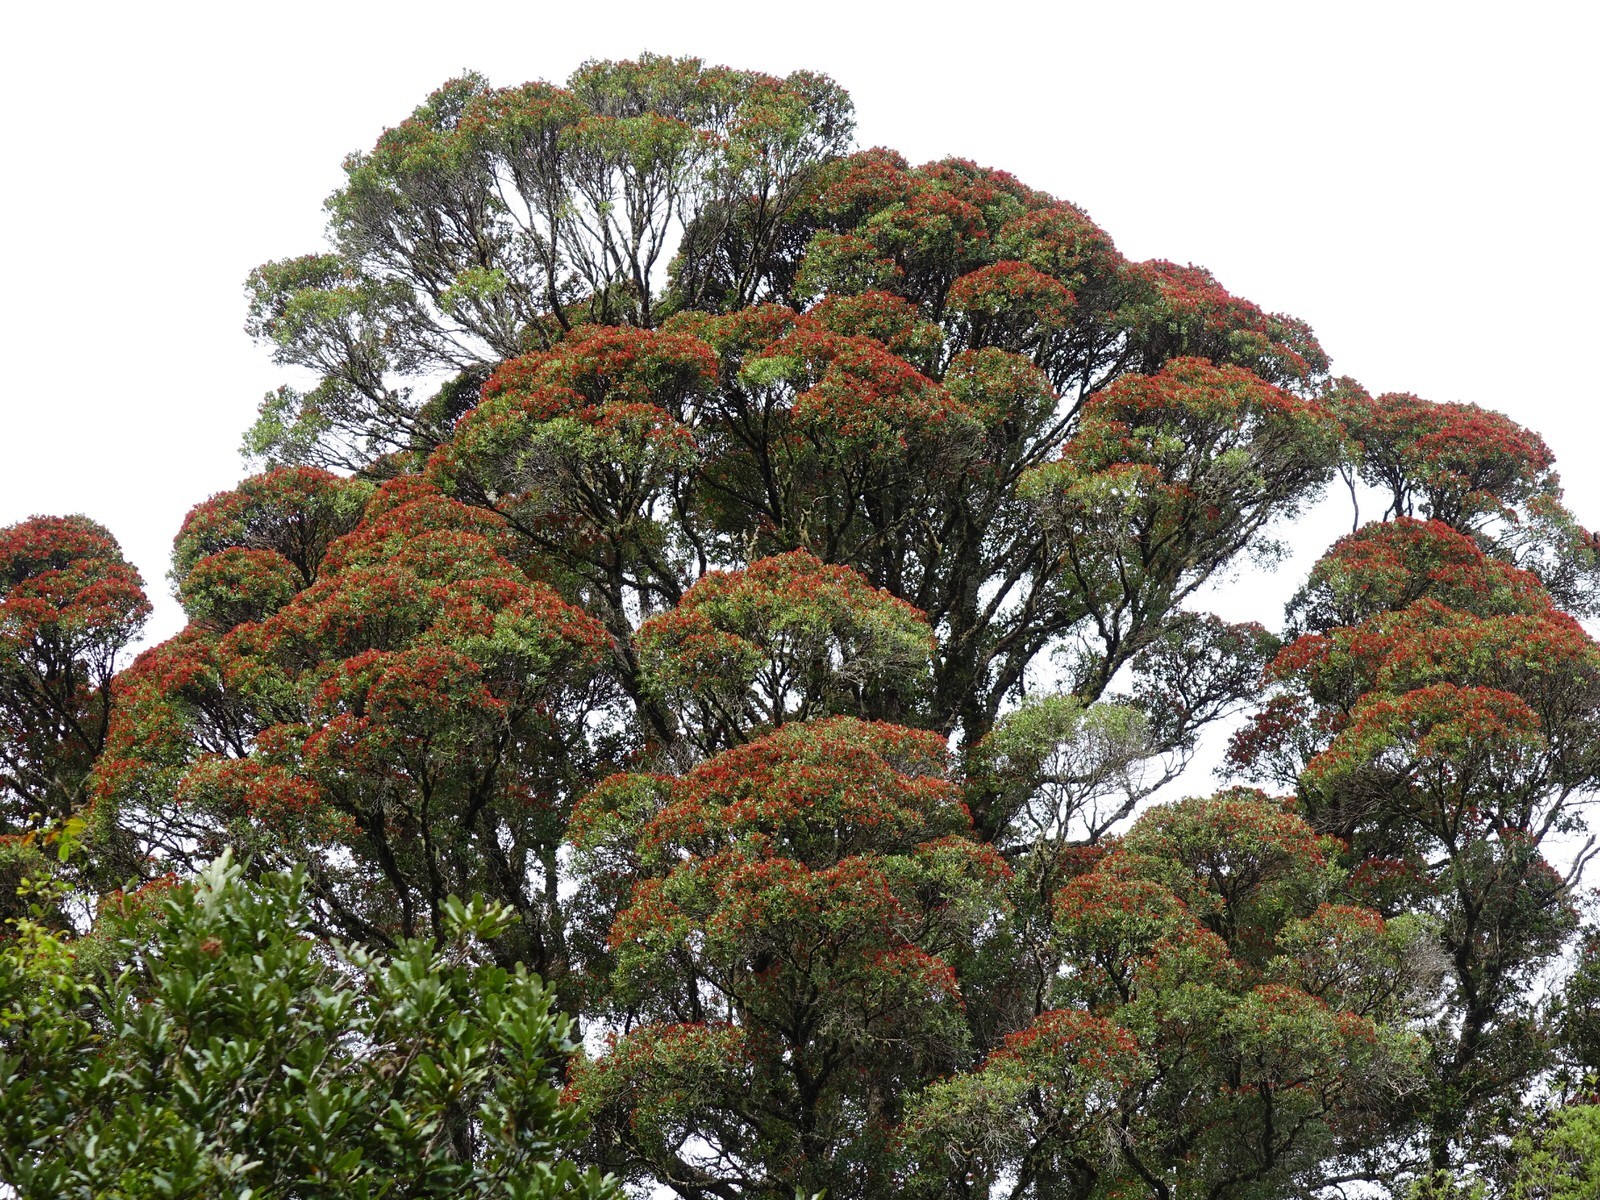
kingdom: Plantae
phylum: Tracheophyta
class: Magnoliopsida
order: Myrtales
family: Myrtaceae
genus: Metrosideros
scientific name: Metrosideros robusta
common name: Northern rata
